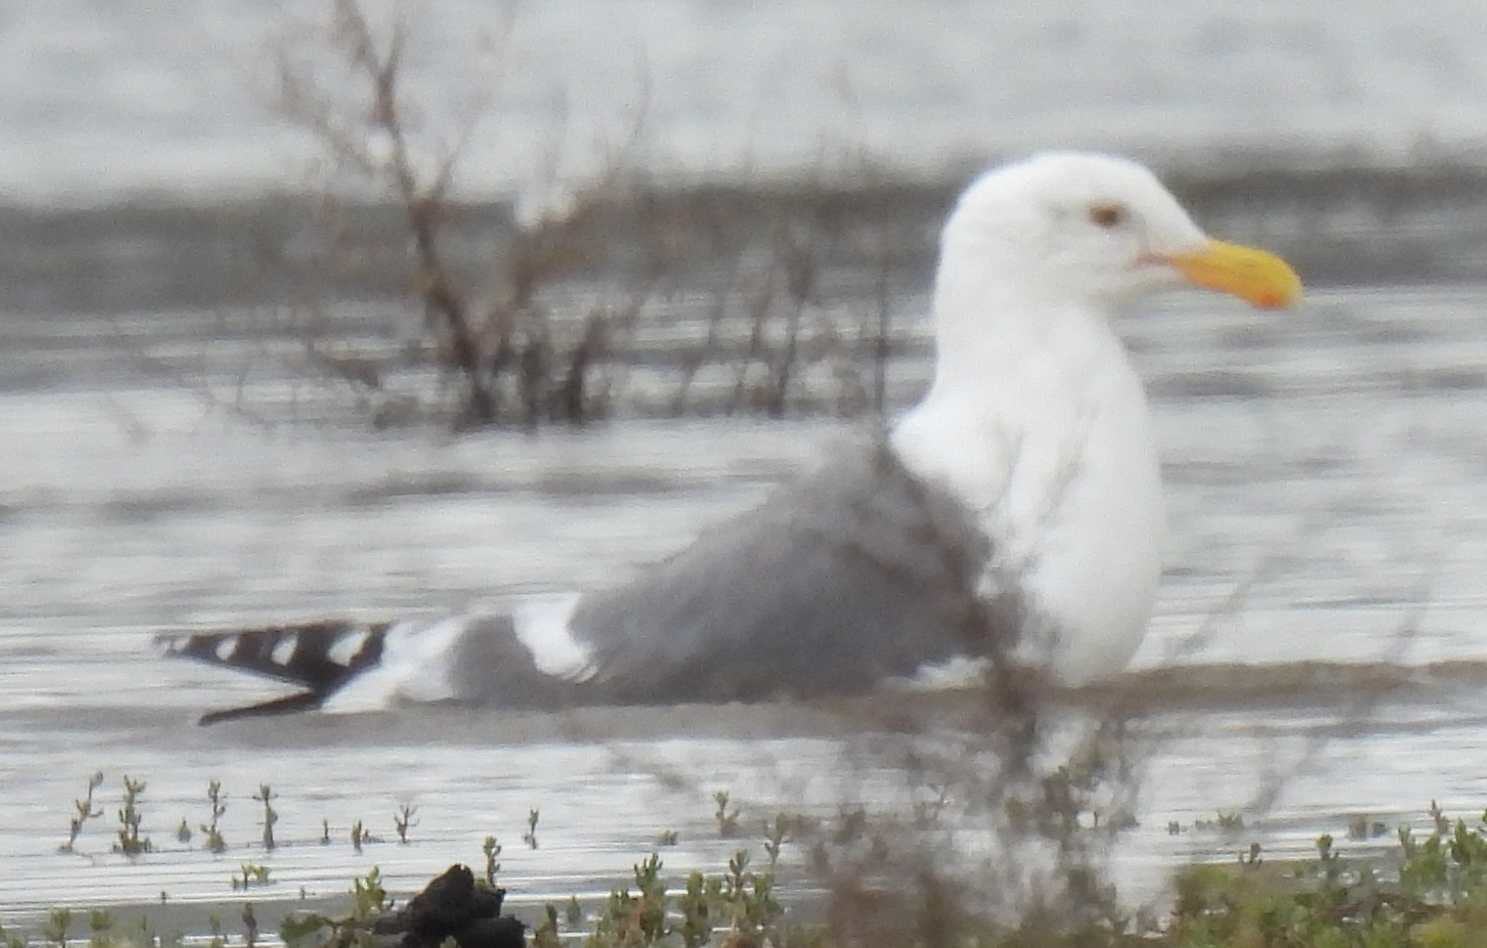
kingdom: Animalia
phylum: Chordata
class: Aves
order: Charadriiformes
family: Laridae
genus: Larus
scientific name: Larus occidentalis
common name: Western gull
